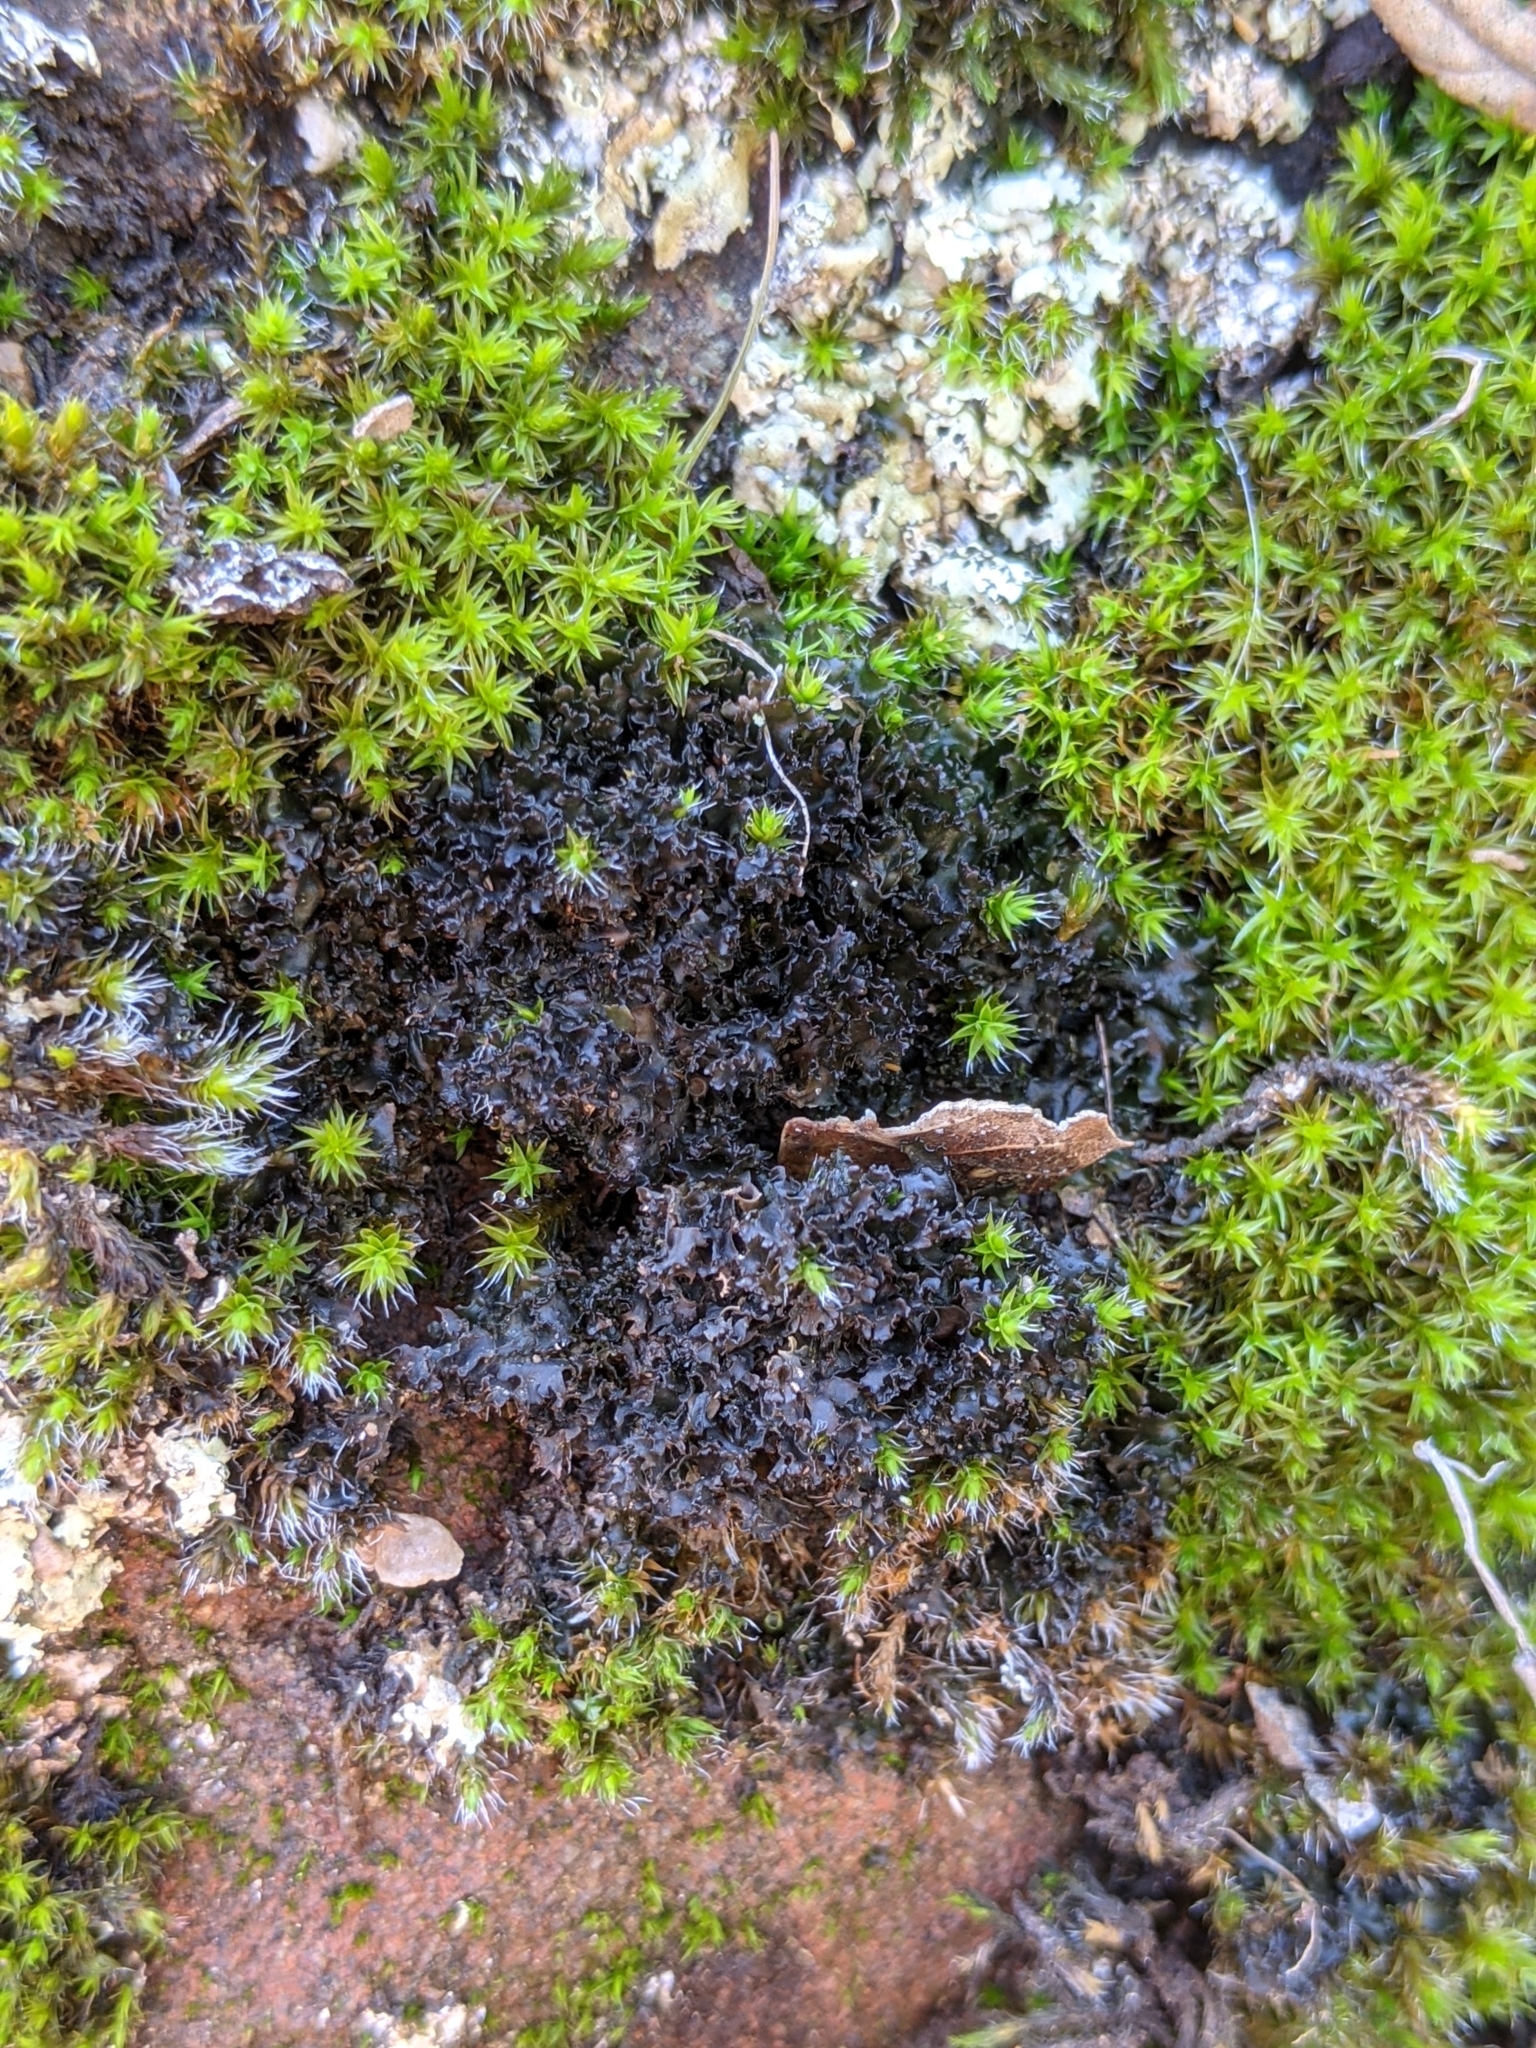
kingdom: Fungi
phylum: Ascomycota
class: Lecanoromycetes
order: Peltigerales
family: Collemataceae
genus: Scytinium
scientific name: Scytinium palmatum
